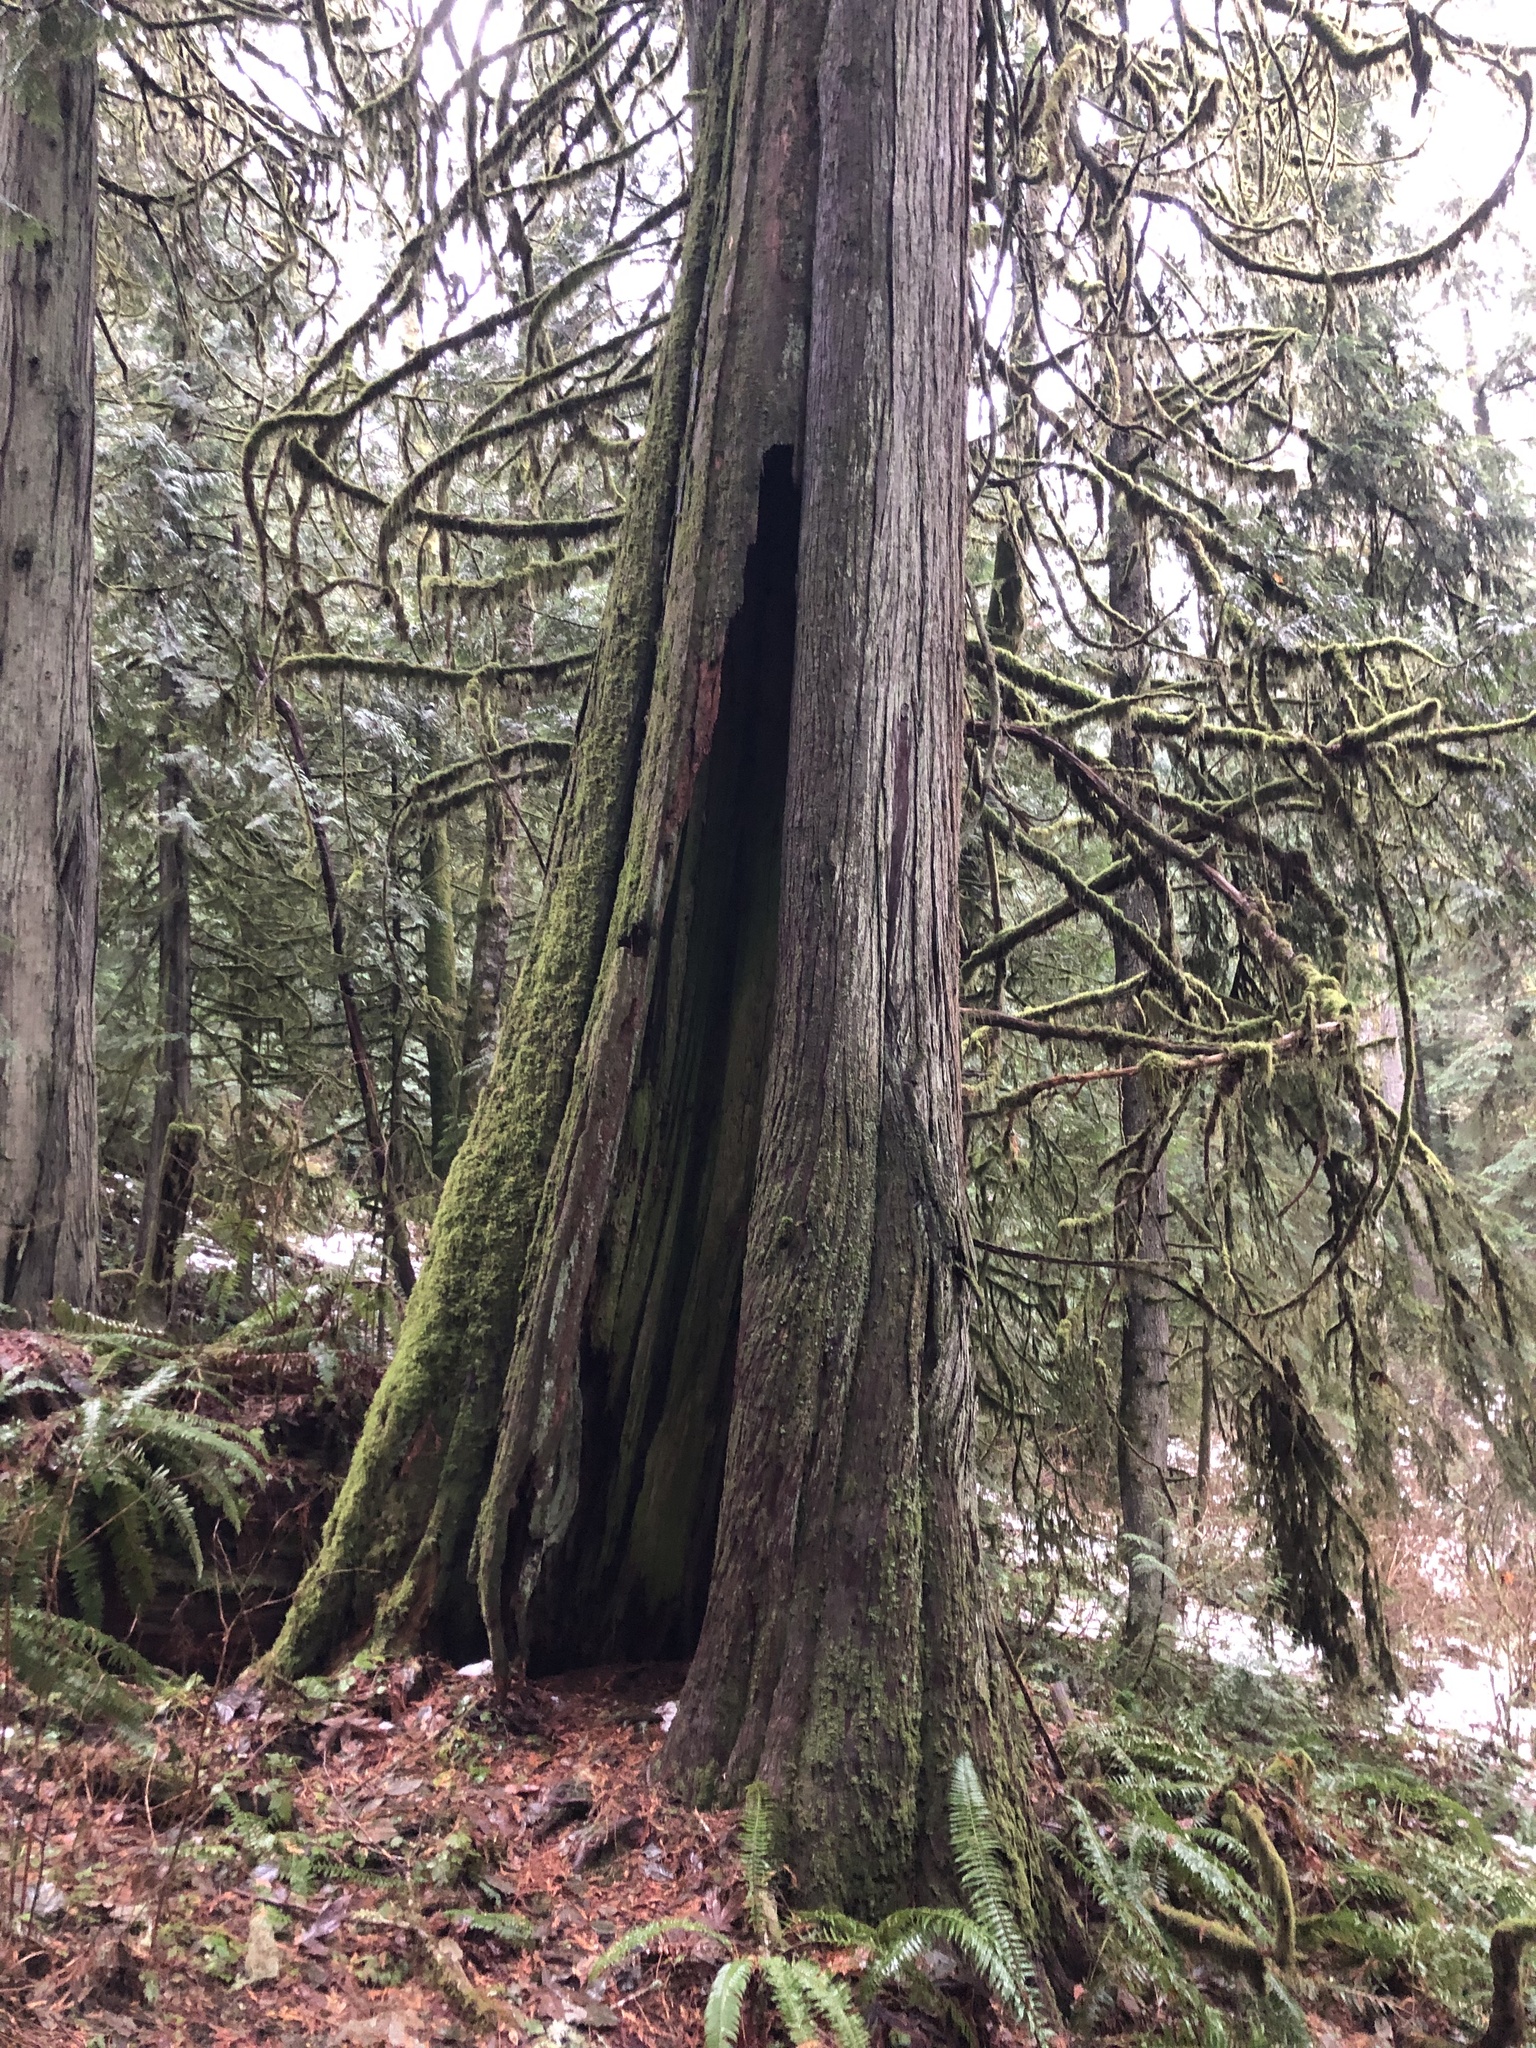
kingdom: Plantae
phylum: Tracheophyta
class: Pinopsida
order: Pinales
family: Cupressaceae
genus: Thuja
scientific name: Thuja plicata
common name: Western red-cedar
